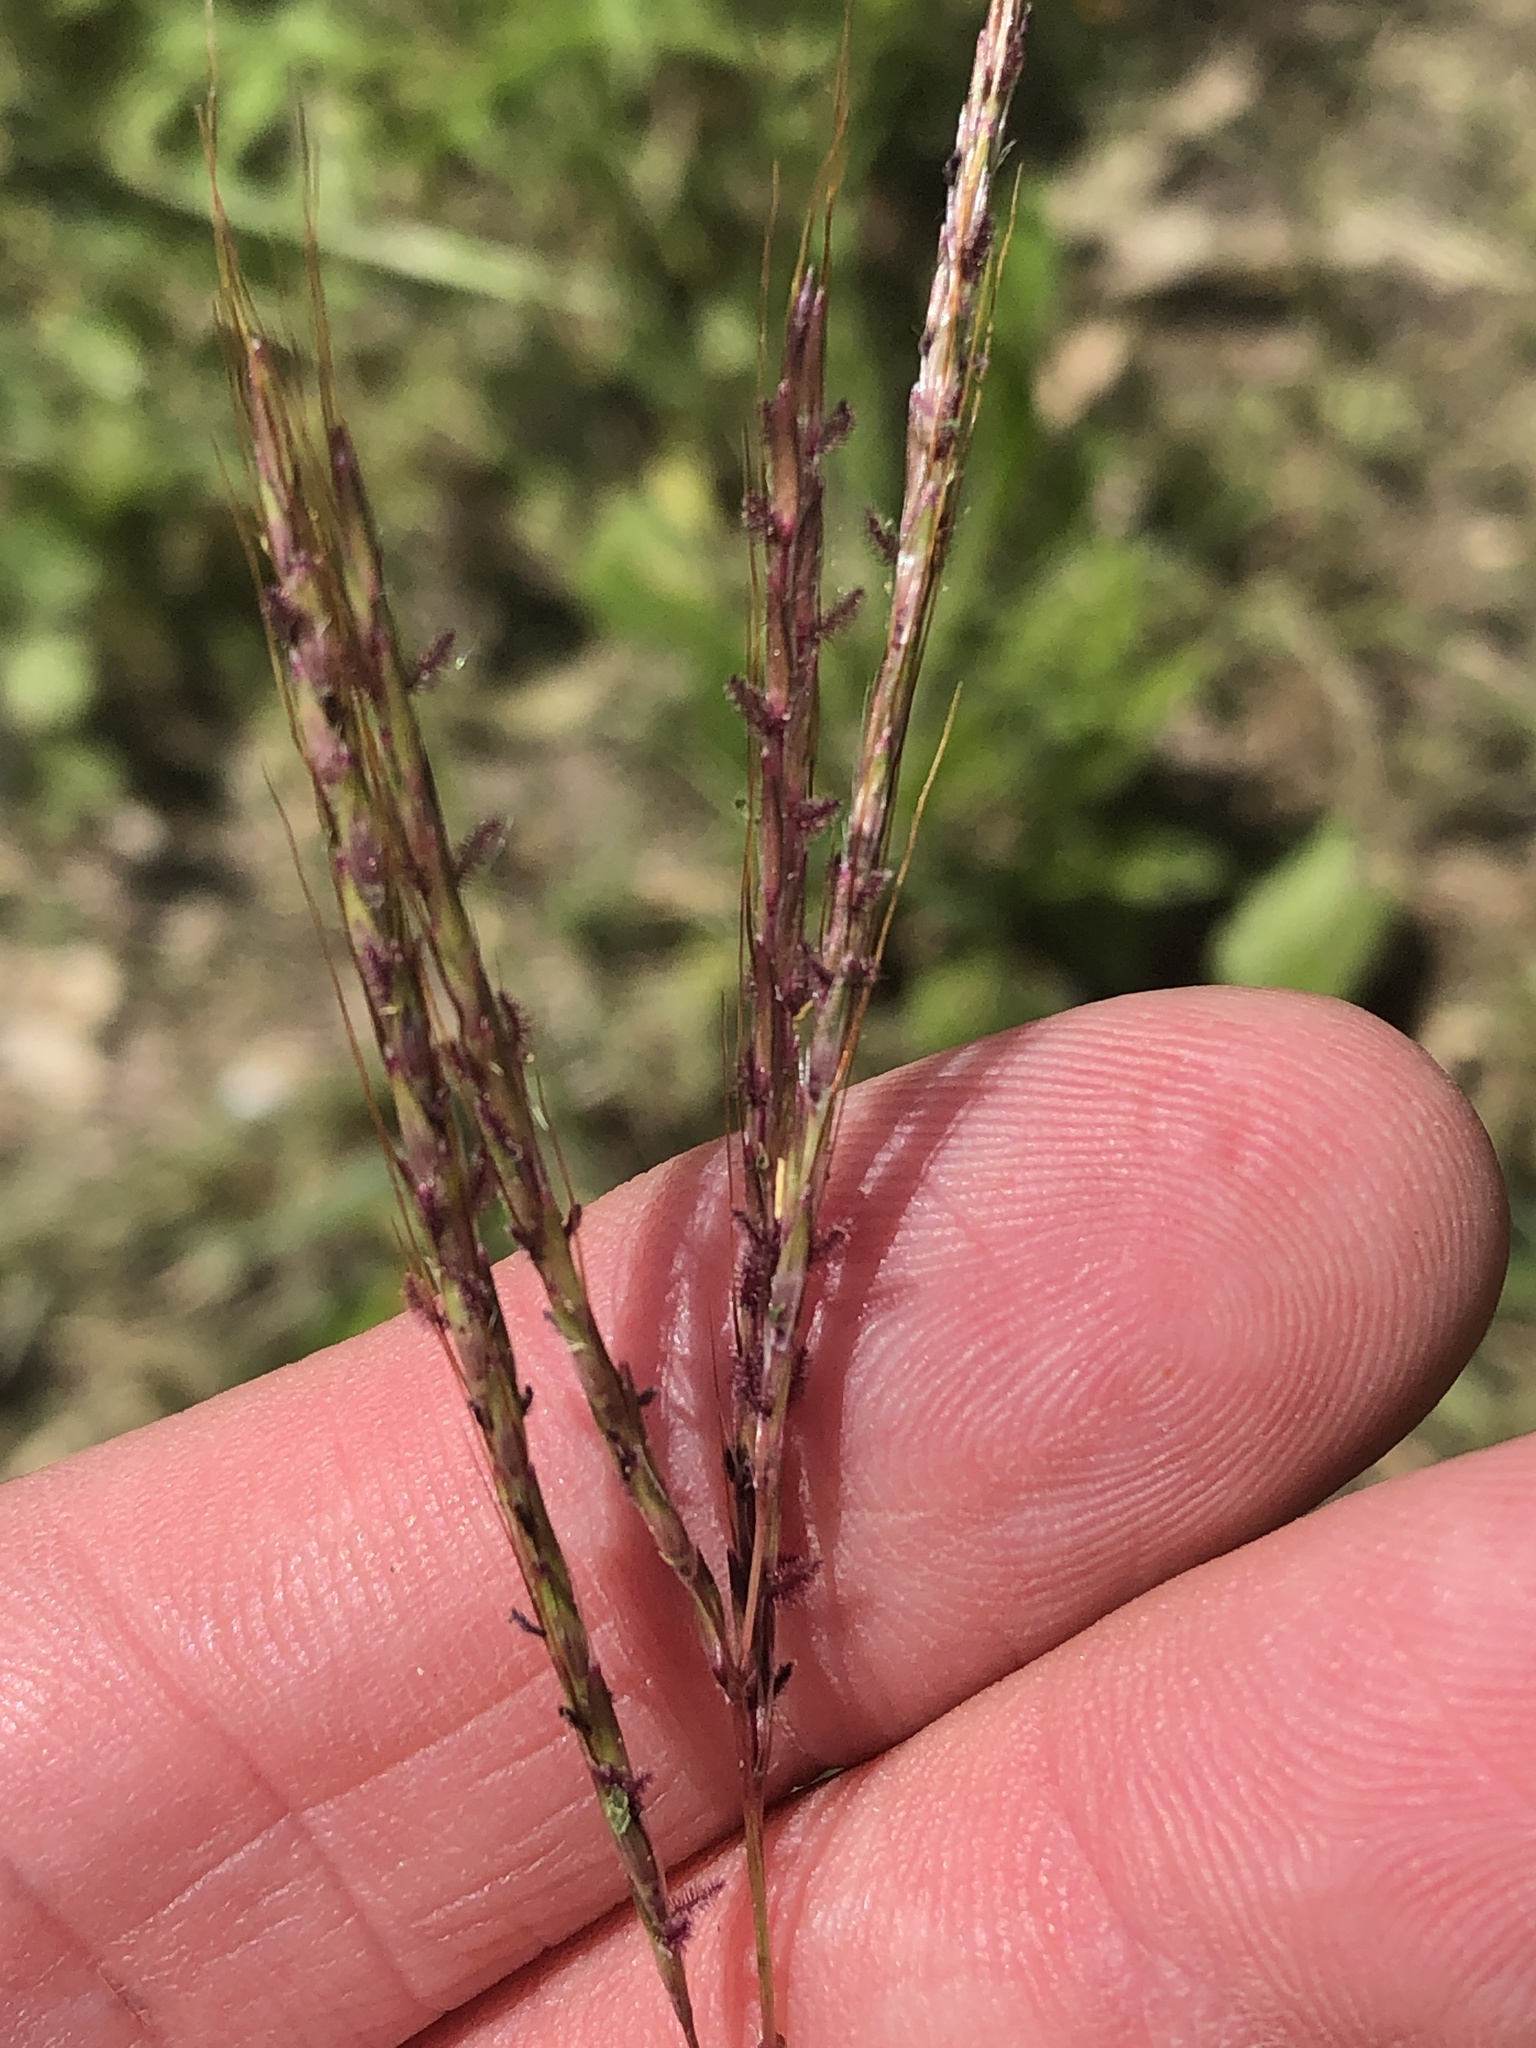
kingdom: Plantae
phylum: Tracheophyta
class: Liliopsida
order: Poales
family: Poaceae
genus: Bothriochloa
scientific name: Bothriochloa ischaemum
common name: Yellow bluestem
